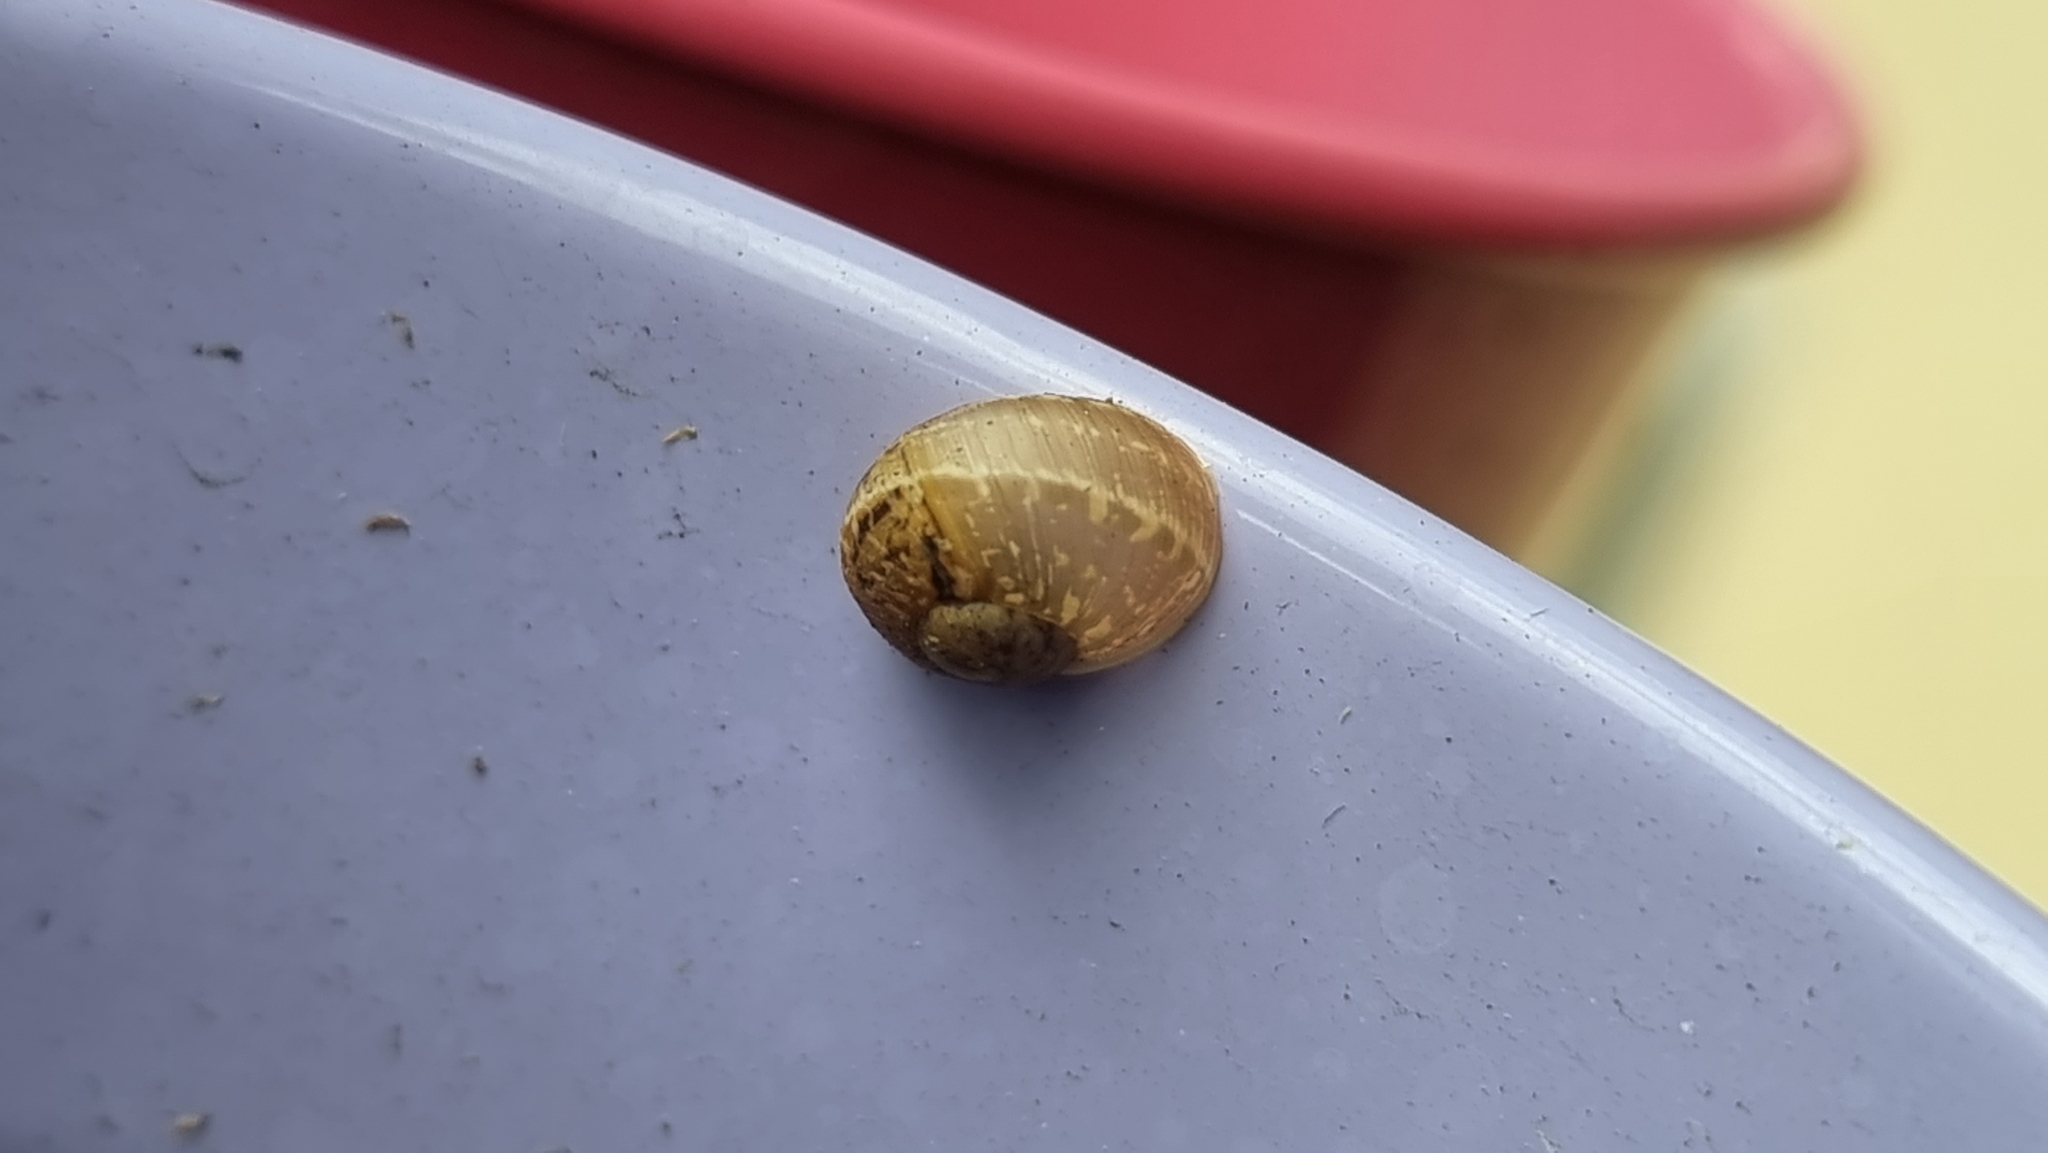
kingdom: Animalia
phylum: Mollusca
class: Gastropoda
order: Stylommatophora
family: Helicidae
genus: Cornu
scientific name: Cornu aspersum
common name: Brown garden snail
